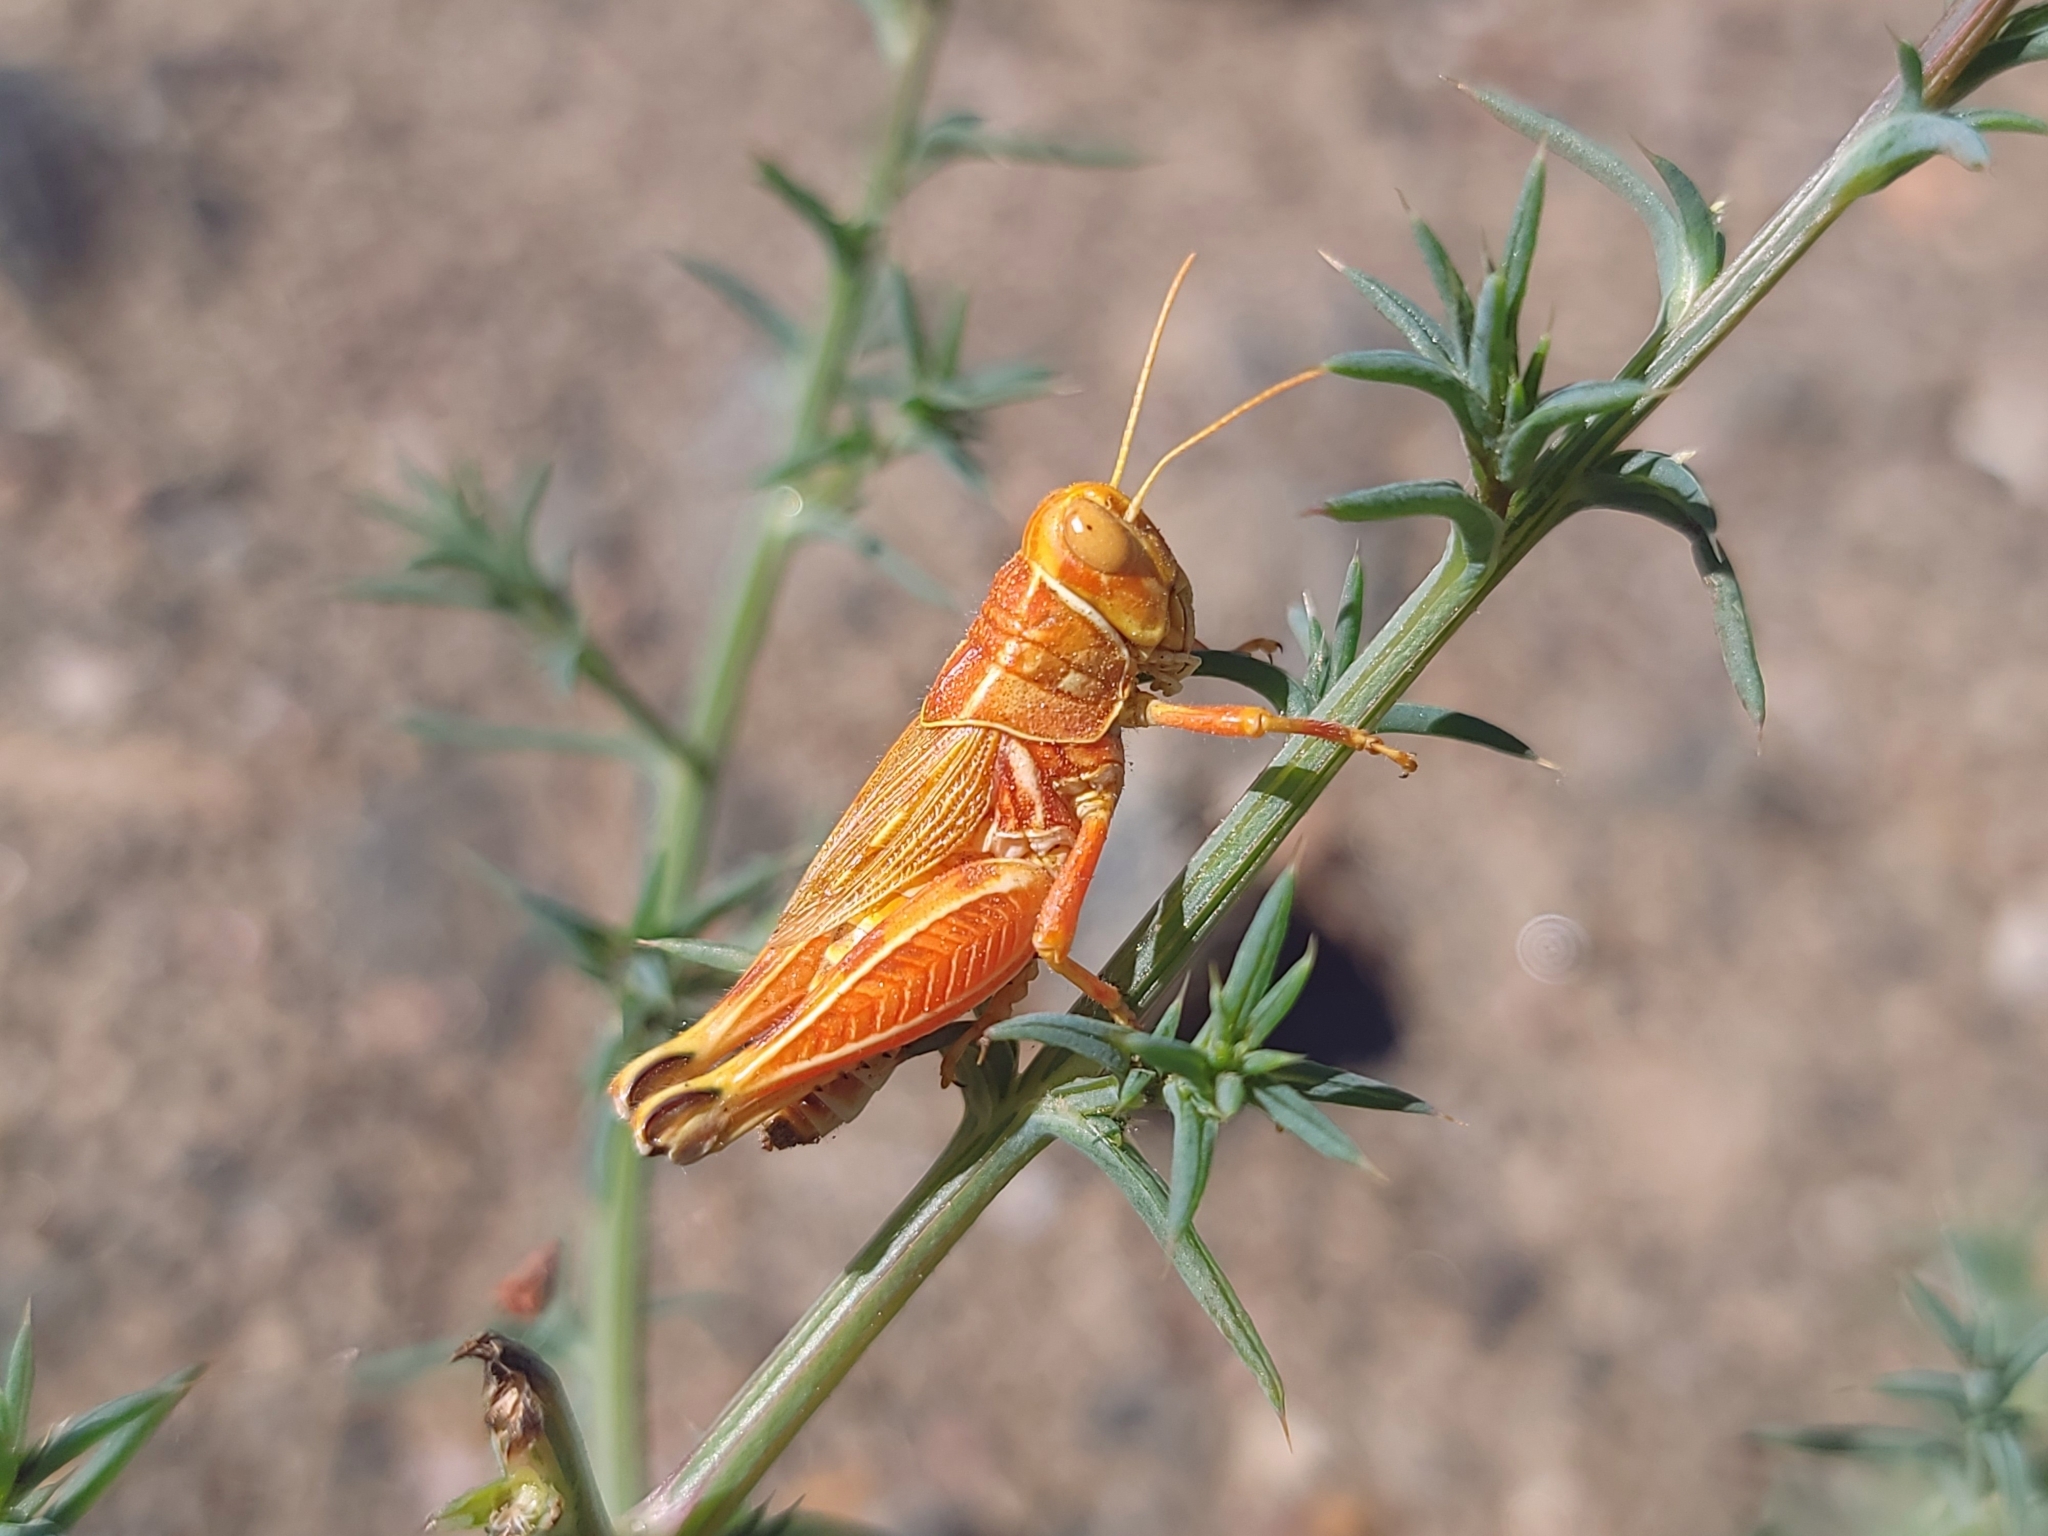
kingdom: Animalia
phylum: Arthropoda
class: Insecta
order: Orthoptera
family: Acrididae
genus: Oedaleonotus
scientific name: Oedaleonotus enigma
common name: Valley grasshopper
